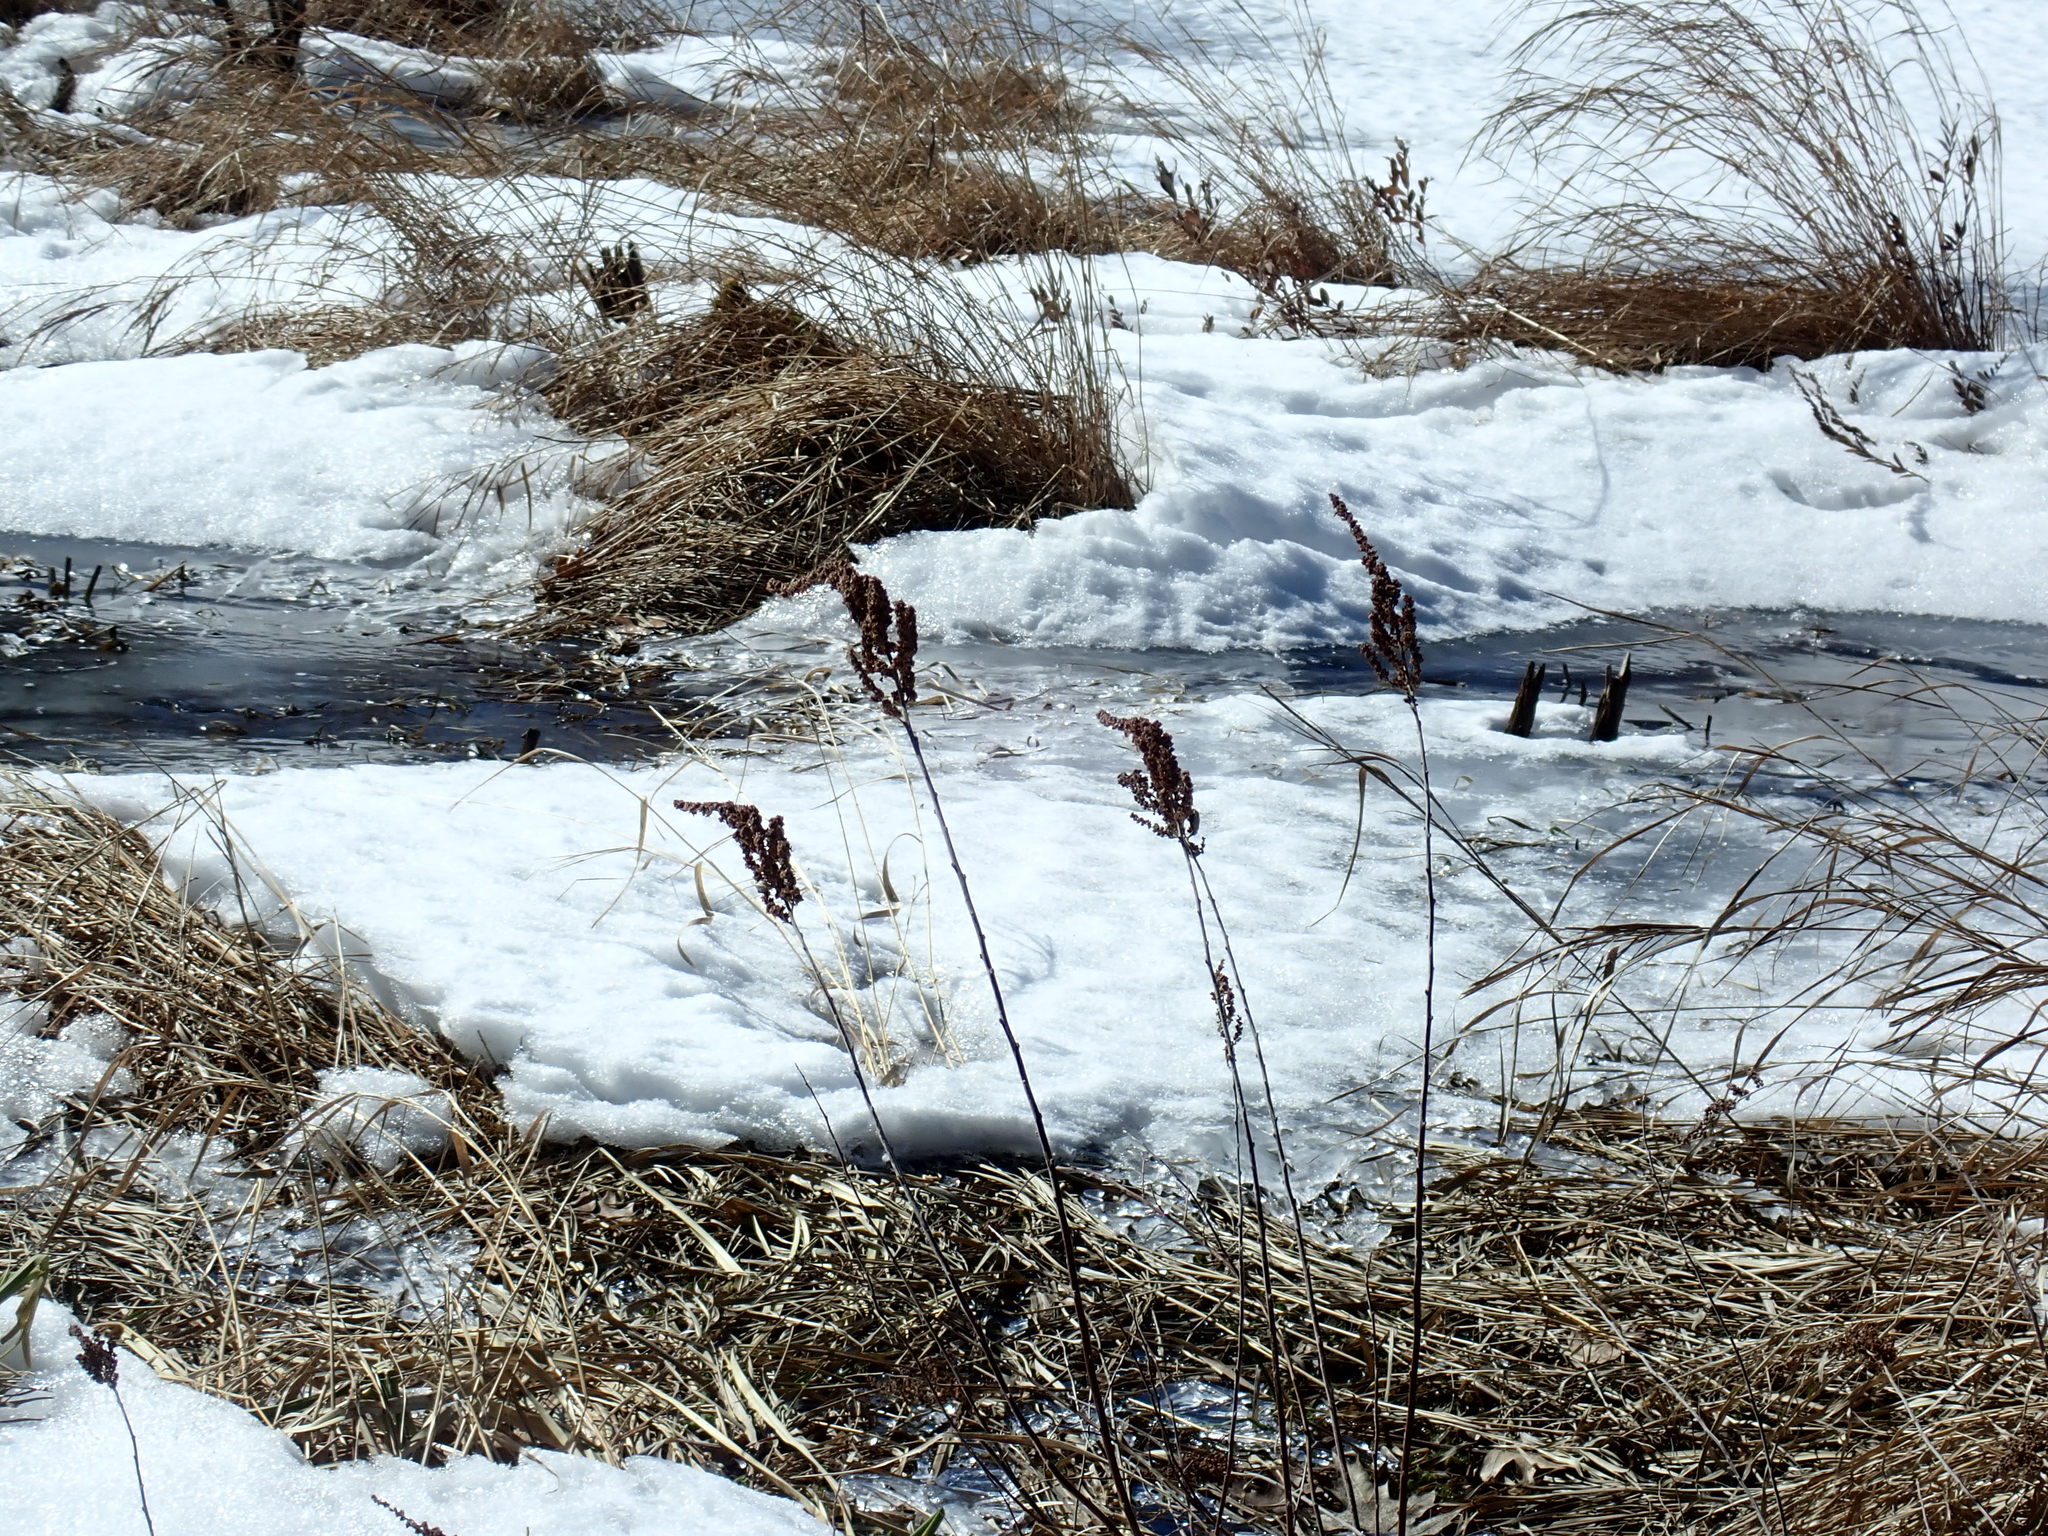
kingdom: Plantae
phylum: Tracheophyta
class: Magnoliopsida
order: Rosales
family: Rosaceae
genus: Spiraea
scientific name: Spiraea tomentosa
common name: Hardhack
